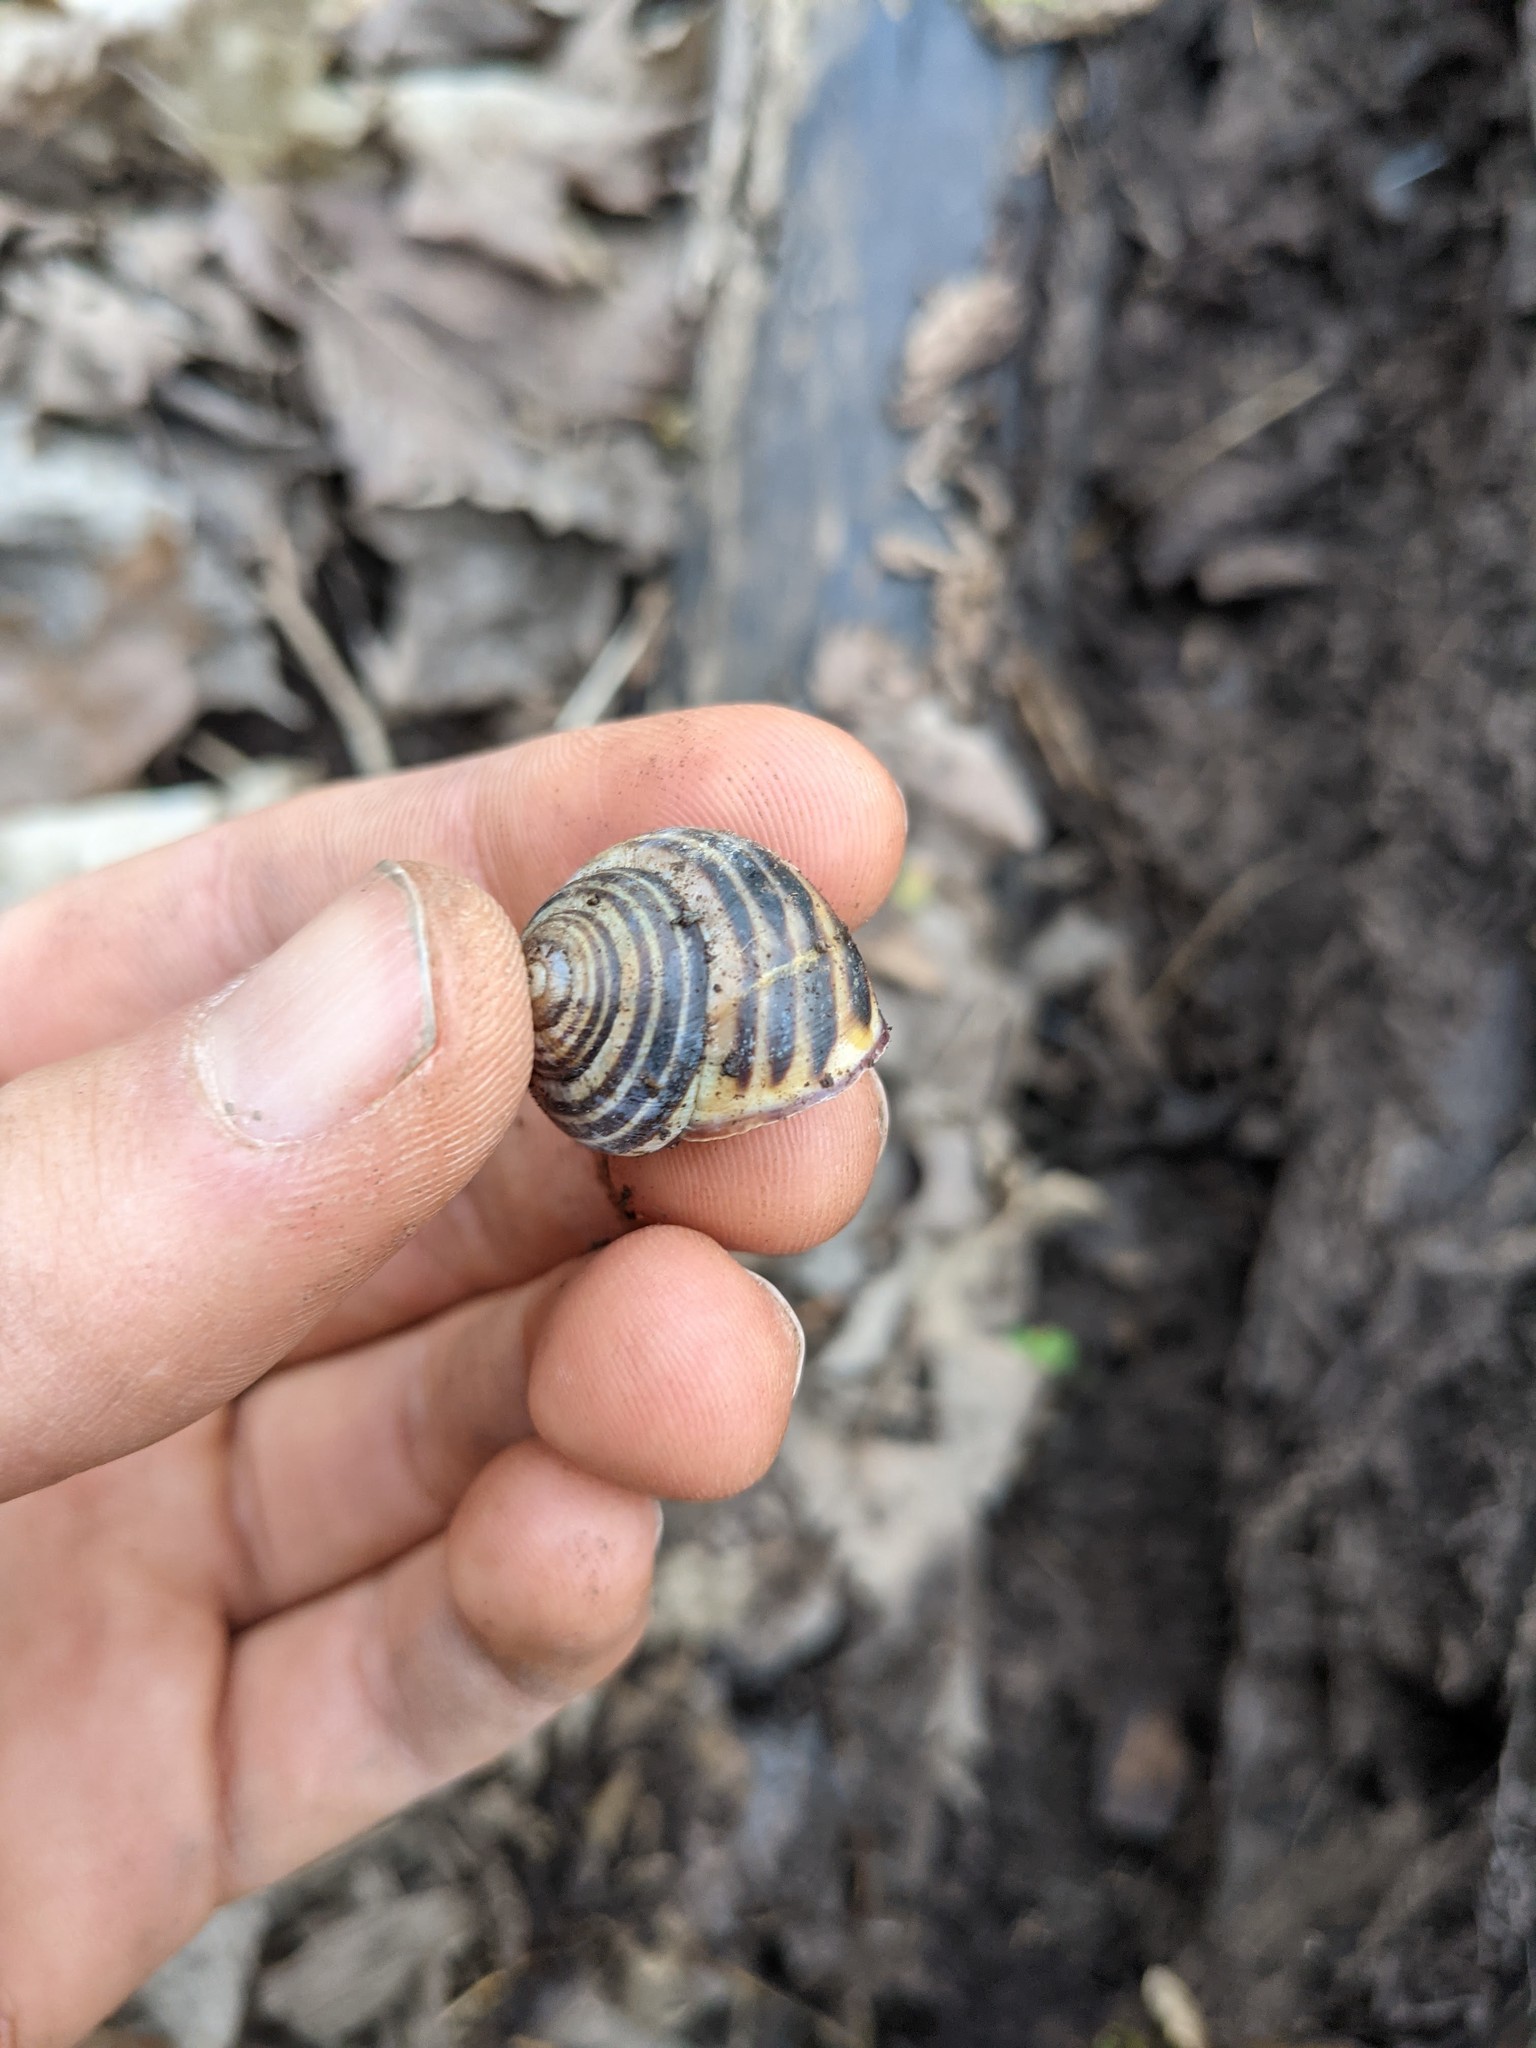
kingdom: Animalia
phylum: Mollusca
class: Gastropoda
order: Stylommatophora
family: Helicidae
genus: Cepaea
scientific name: Cepaea nemoralis
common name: Grovesnail
